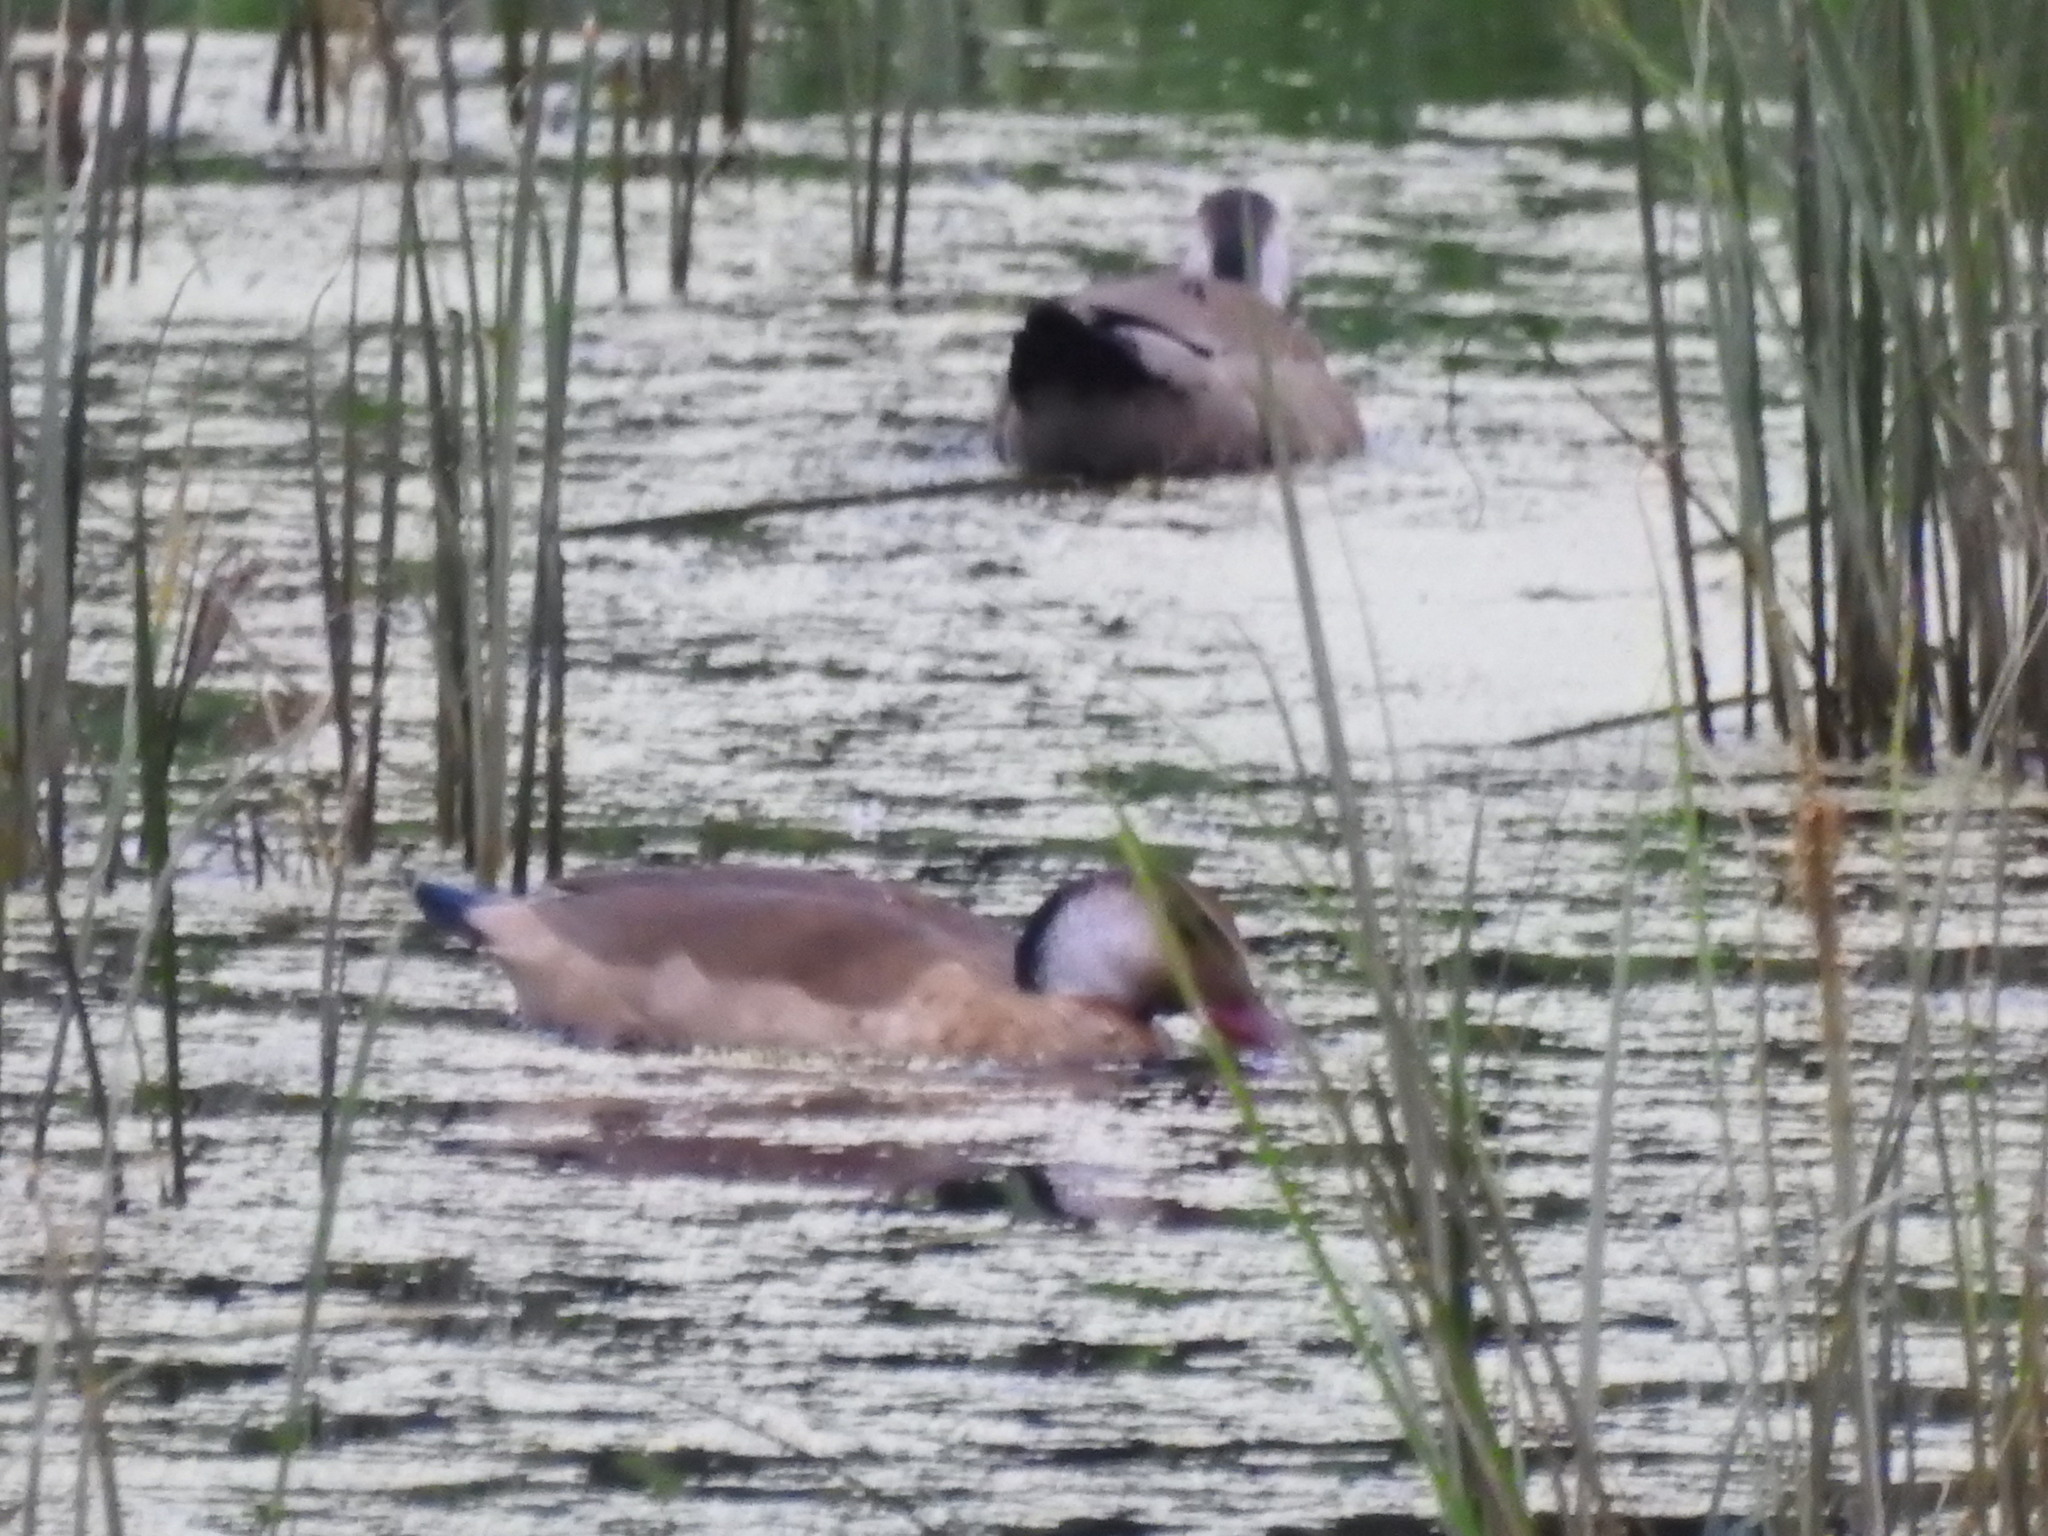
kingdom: Animalia
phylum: Chordata
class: Aves
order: Anseriformes
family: Anatidae
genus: Amazonetta
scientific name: Amazonetta brasiliensis
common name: Brazilian teal
